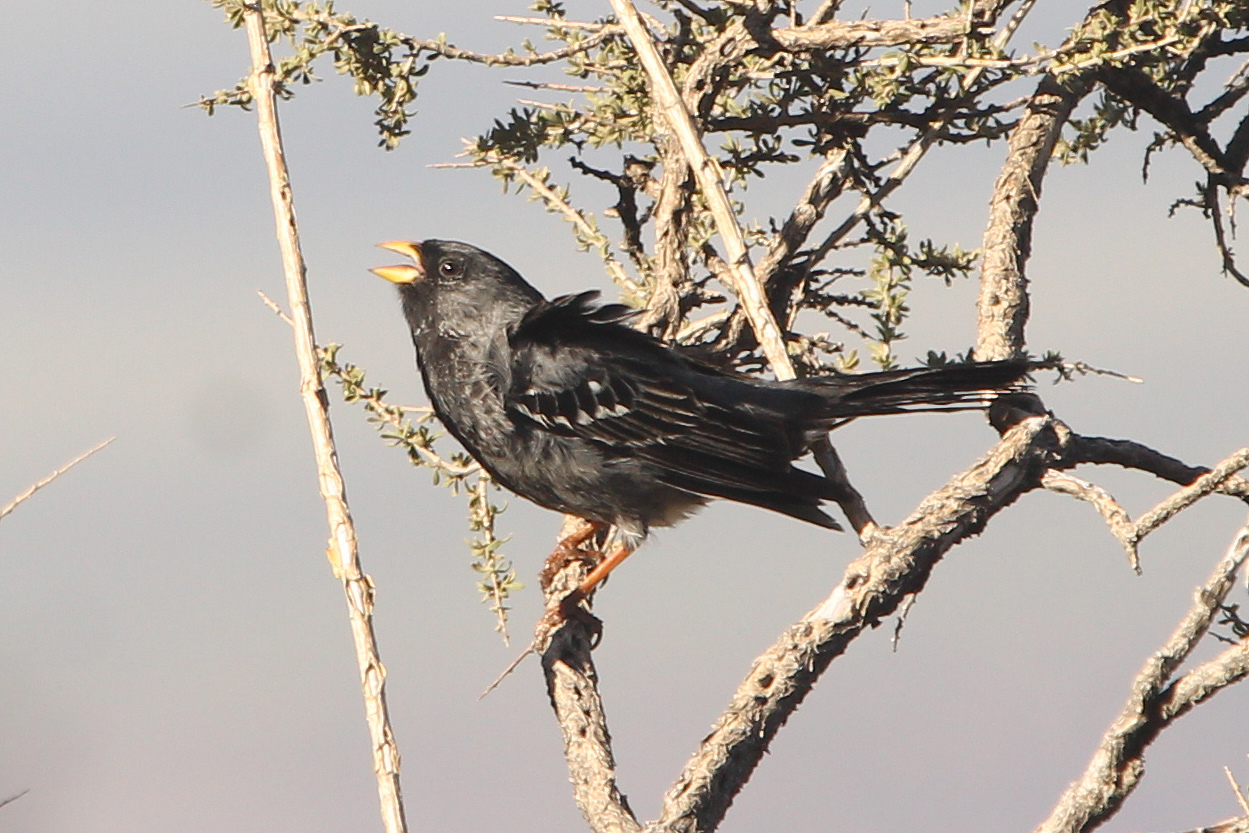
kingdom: Animalia
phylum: Chordata
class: Aves
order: Passeriformes
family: Thraupidae
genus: Rhopospina
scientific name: Rhopospina fruticeti
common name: Mourning sierra finch
